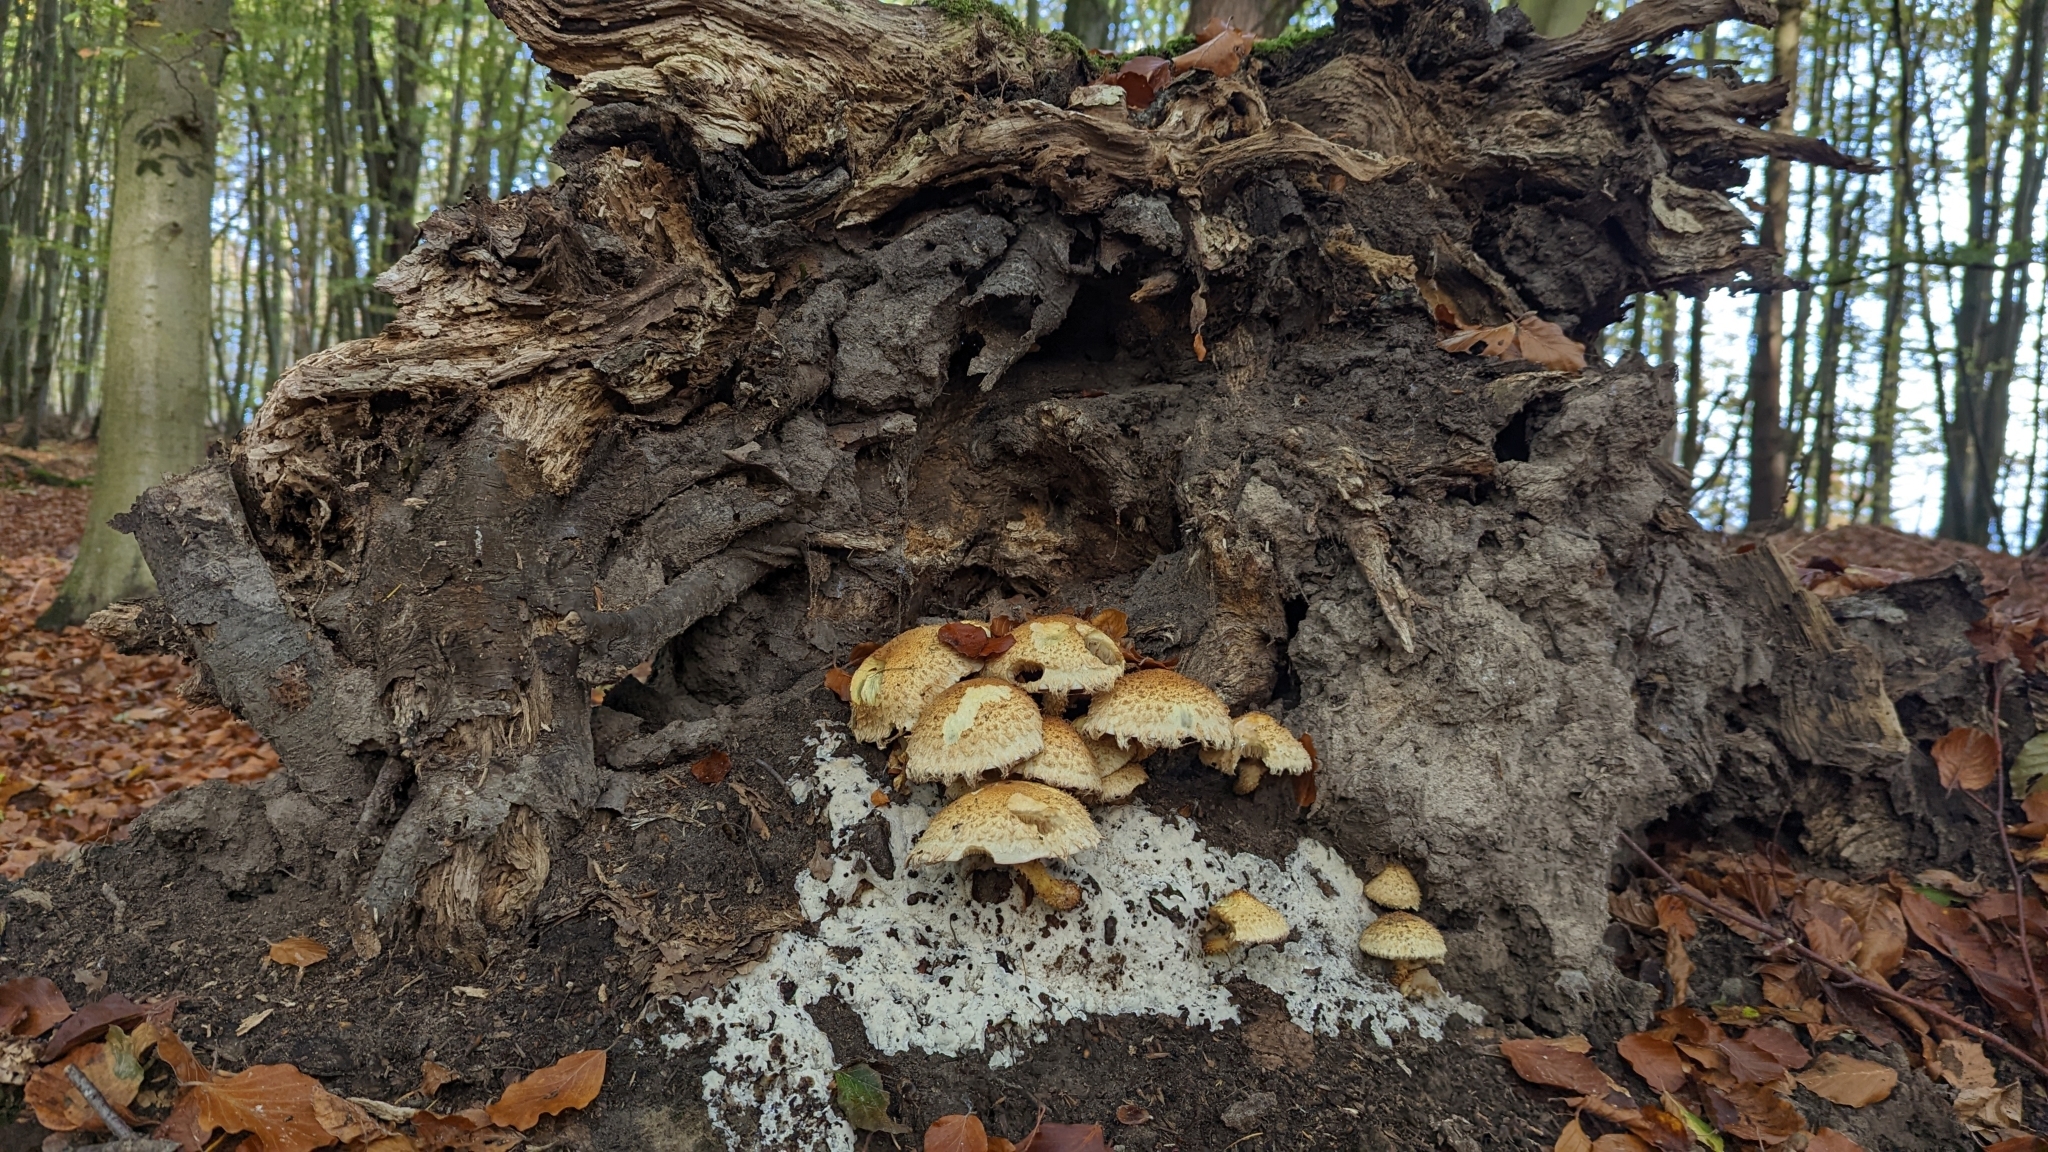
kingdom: Fungi
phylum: Basidiomycota
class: Agaricomycetes
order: Agaricales
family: Strophariaceae
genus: Pholiota
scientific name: Pholiota squarrosa
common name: Shaggy pholiota
